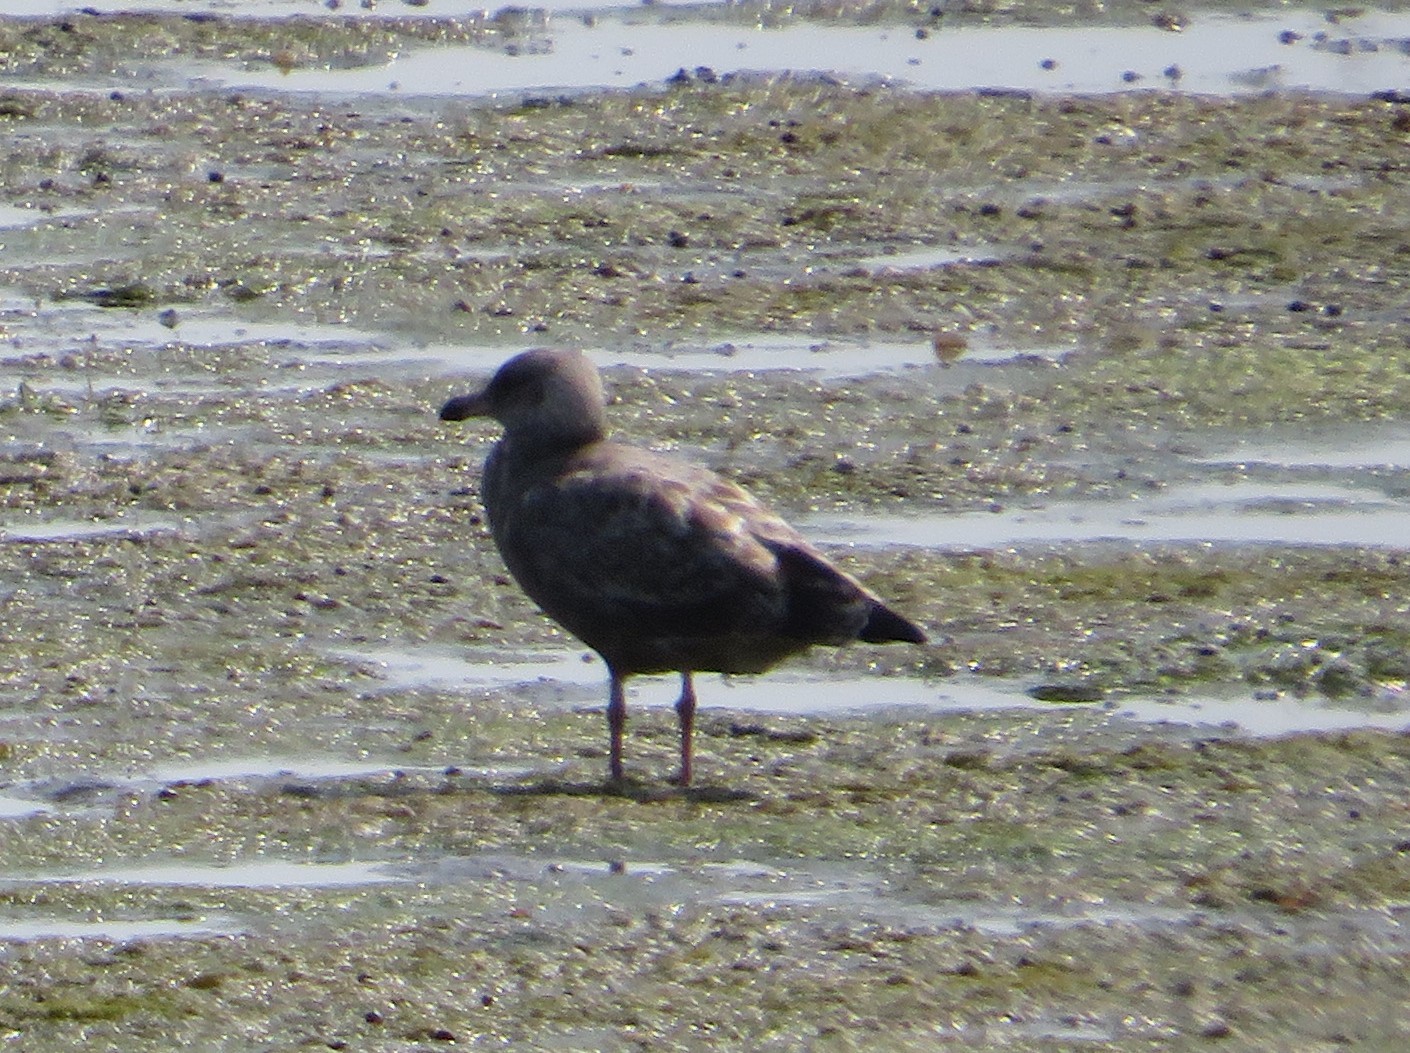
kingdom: Animalia
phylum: Chordata
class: Aves
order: Charadriiformes
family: Laridae
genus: Larus
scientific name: Larus argentatus
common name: Herring gull
